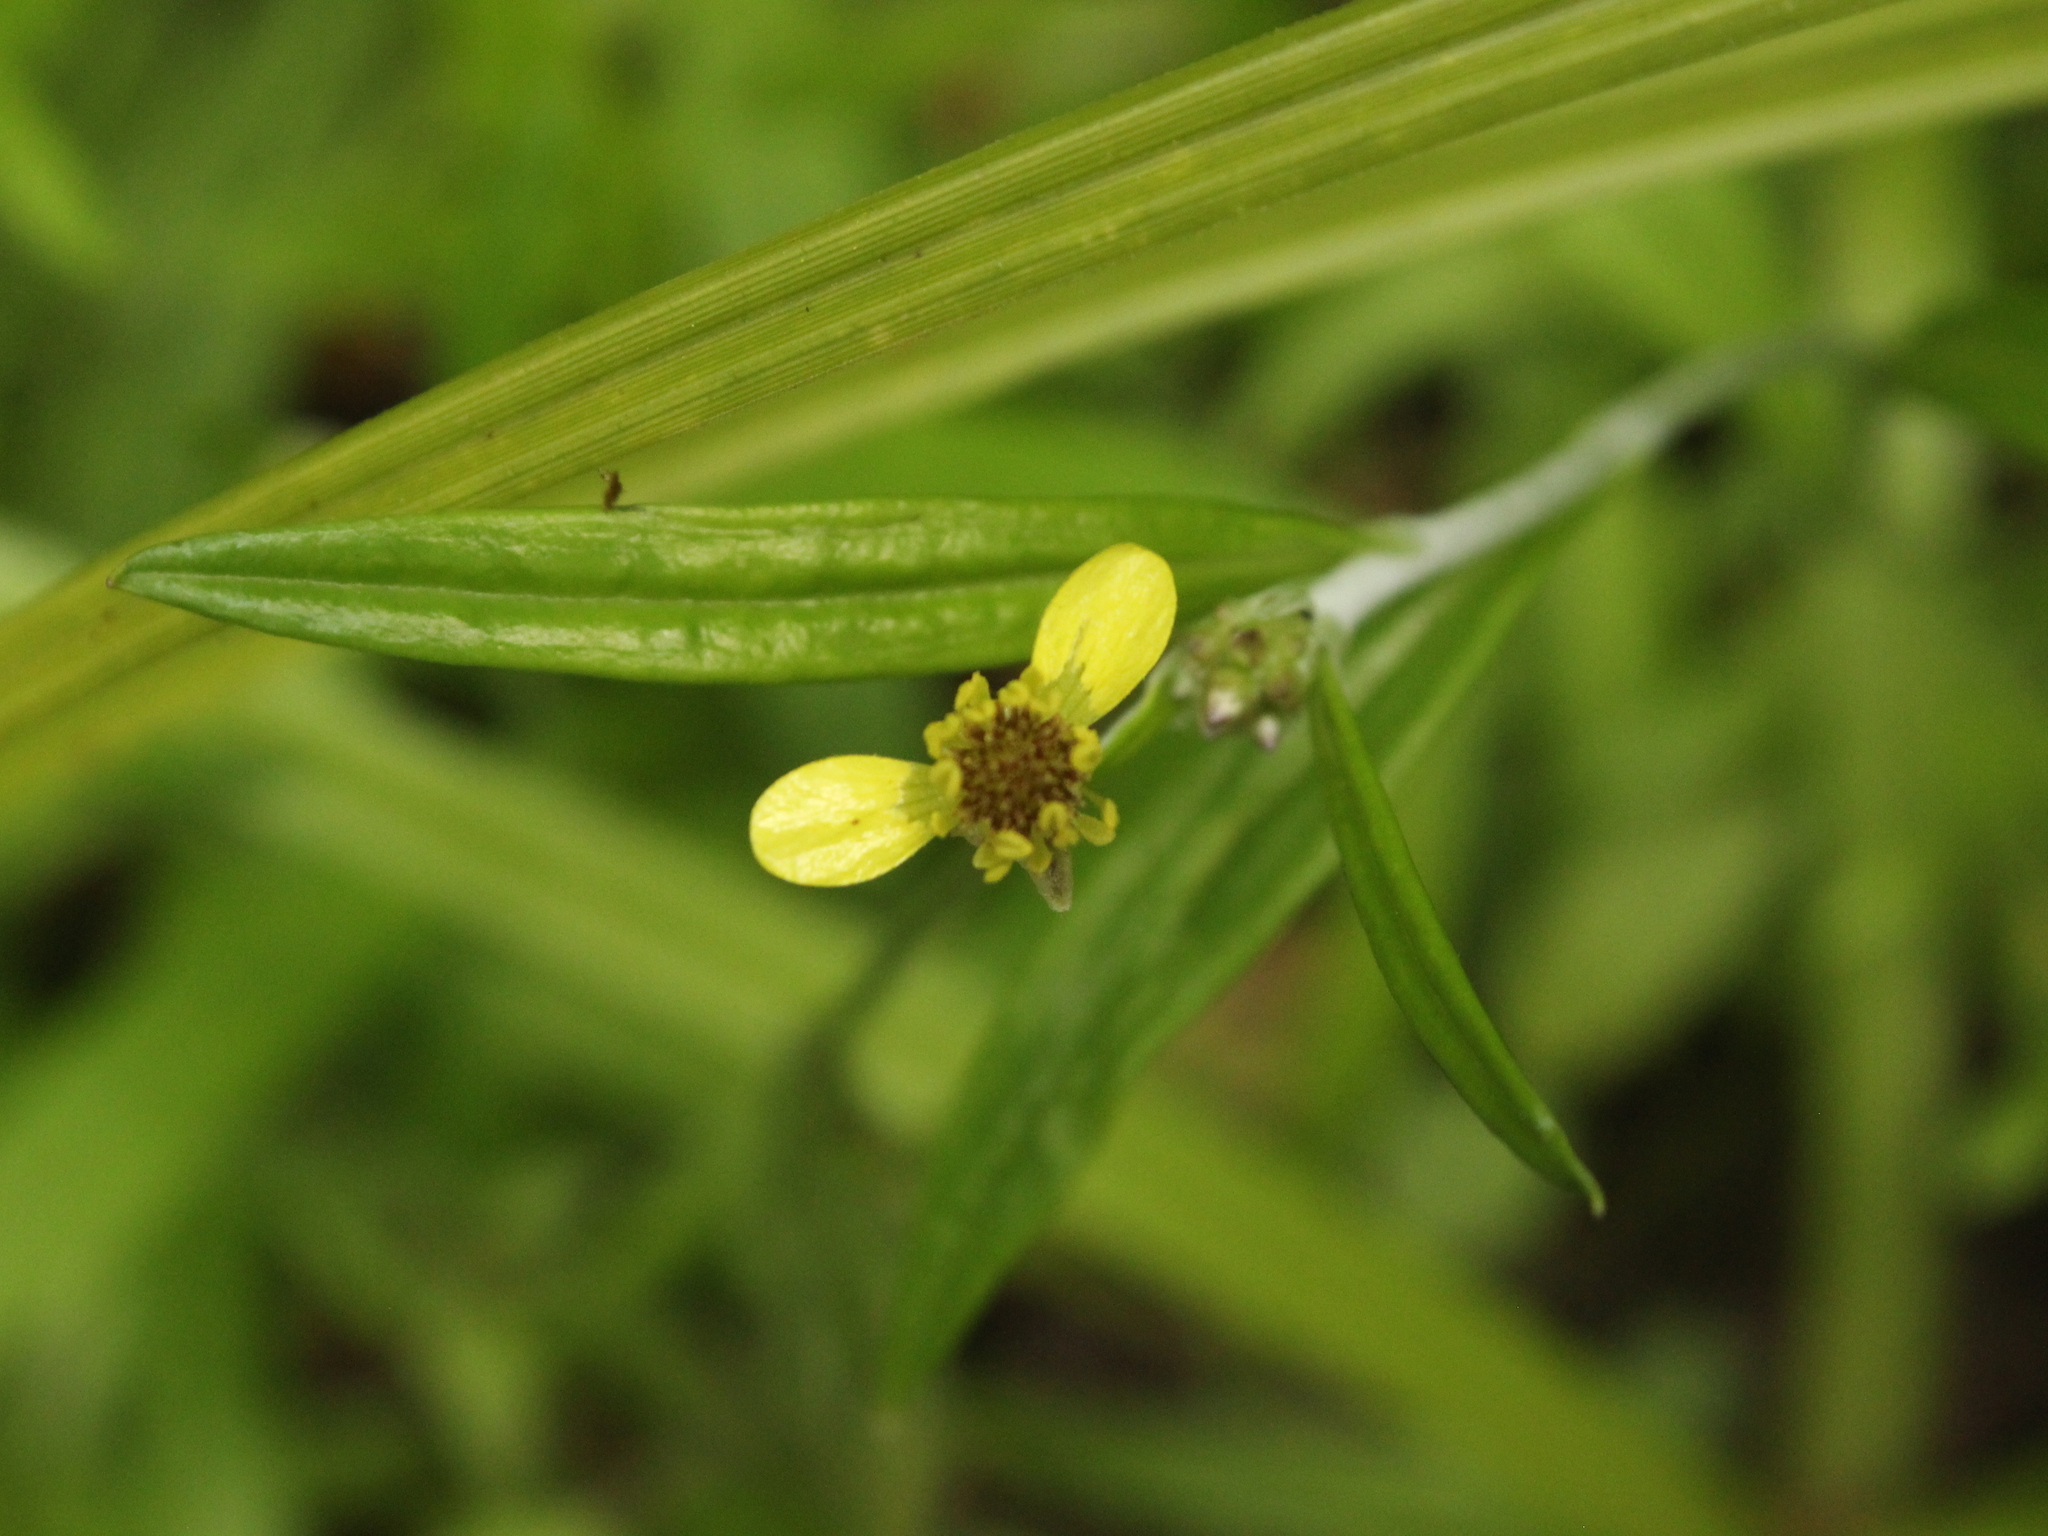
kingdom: Plantae
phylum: Tracheophyta
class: Magnoliopsida
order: Ranunculales
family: Ranunculaceae
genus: Ranunculus
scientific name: Ranunculus reflexus
